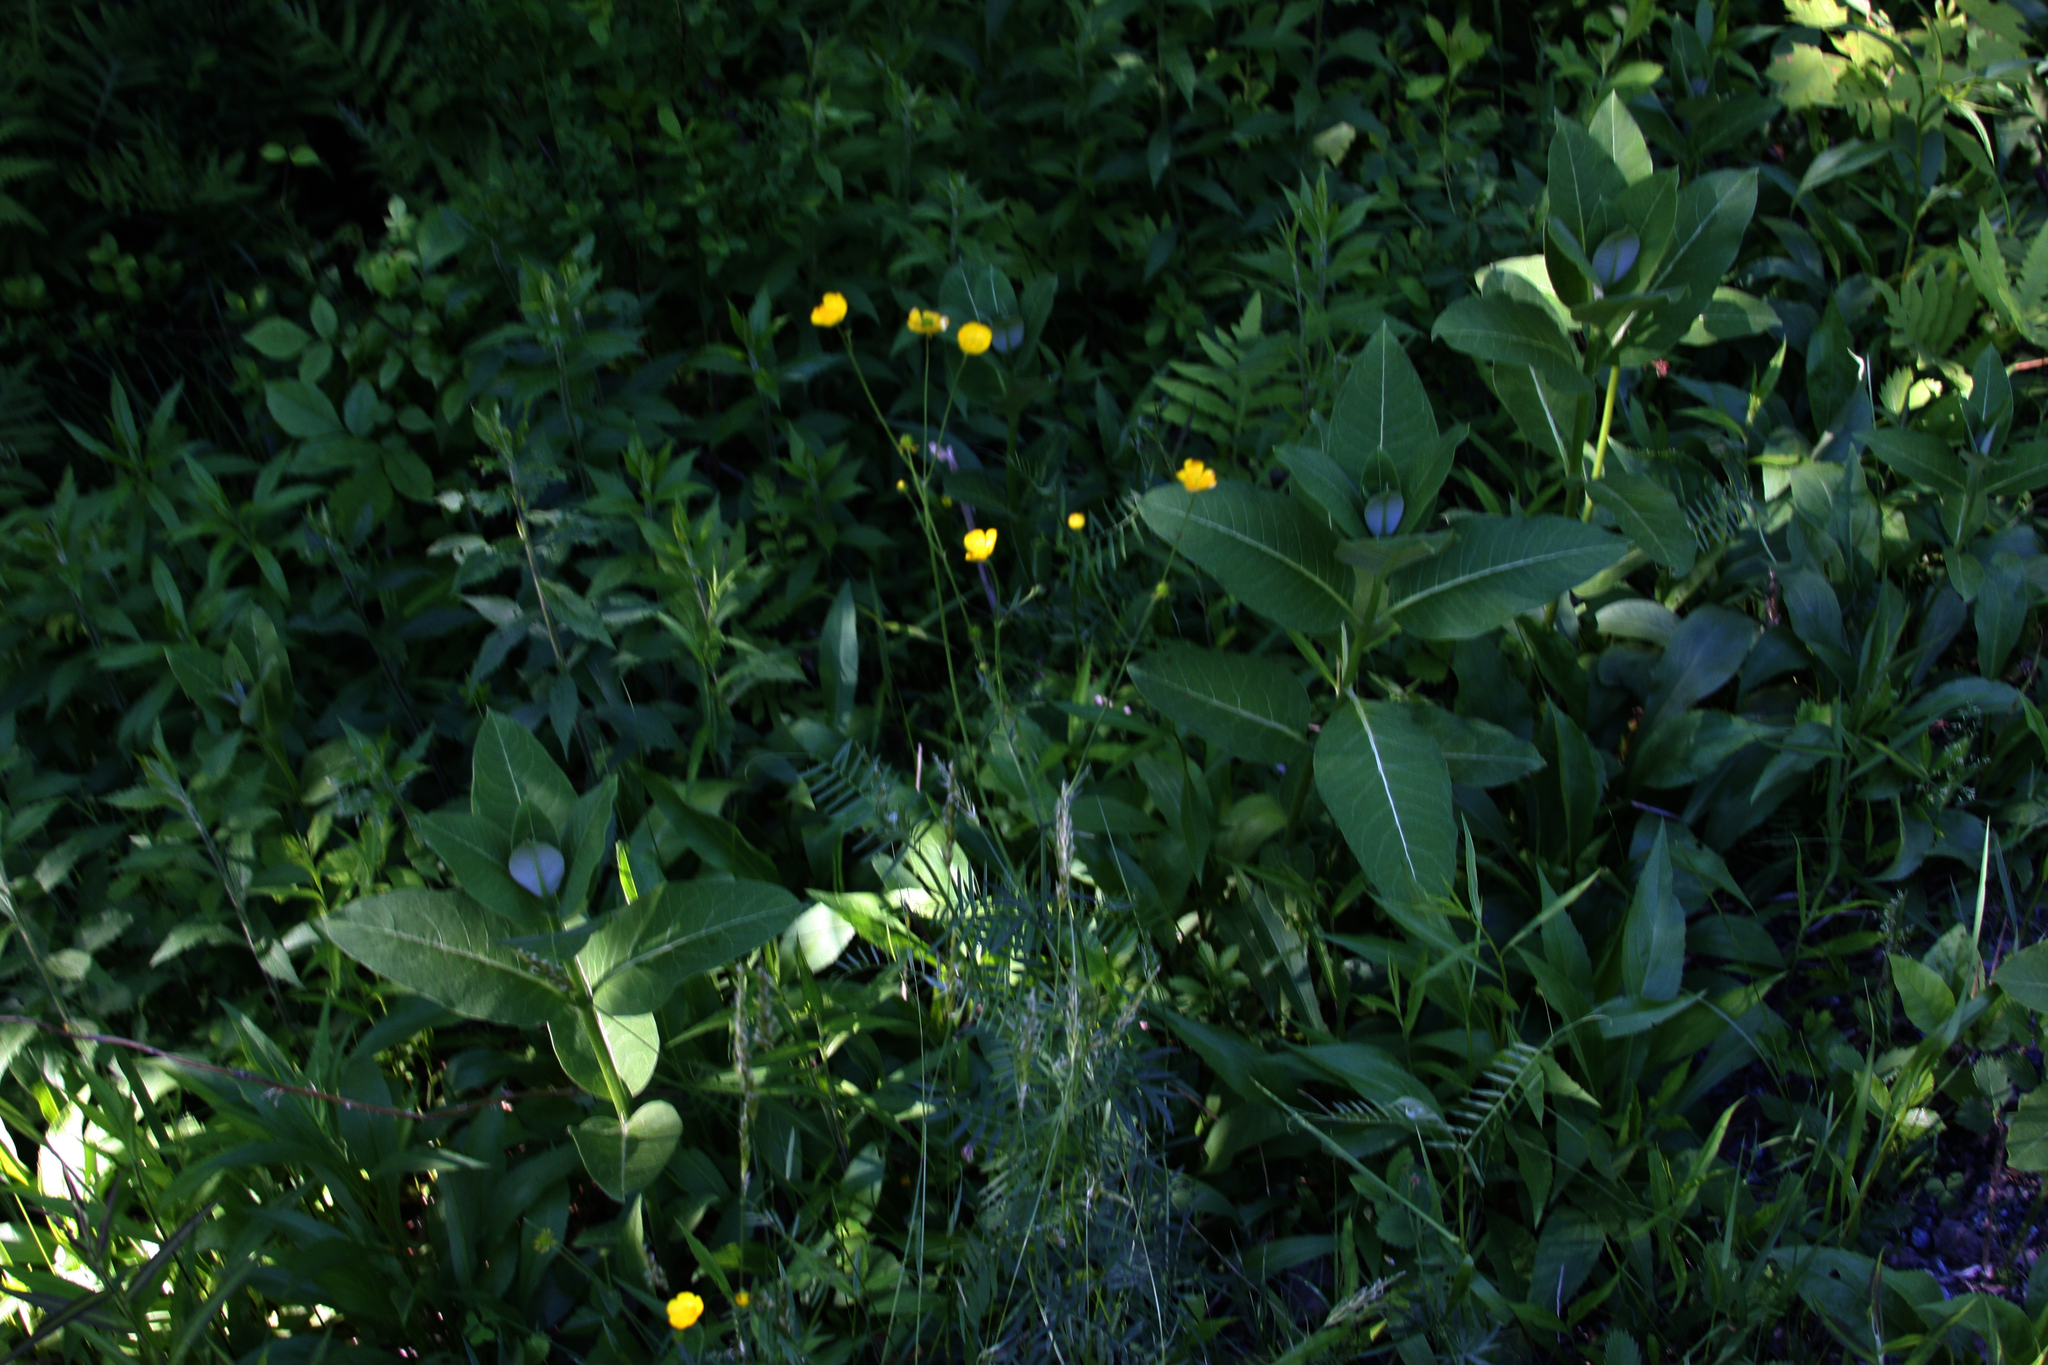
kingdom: Plantae
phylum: Tracheophyta
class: Magnoliopsida
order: Gentianales
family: Apocynaceae
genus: Asclepias
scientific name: Asclepias syriaca
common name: Common milkweed
